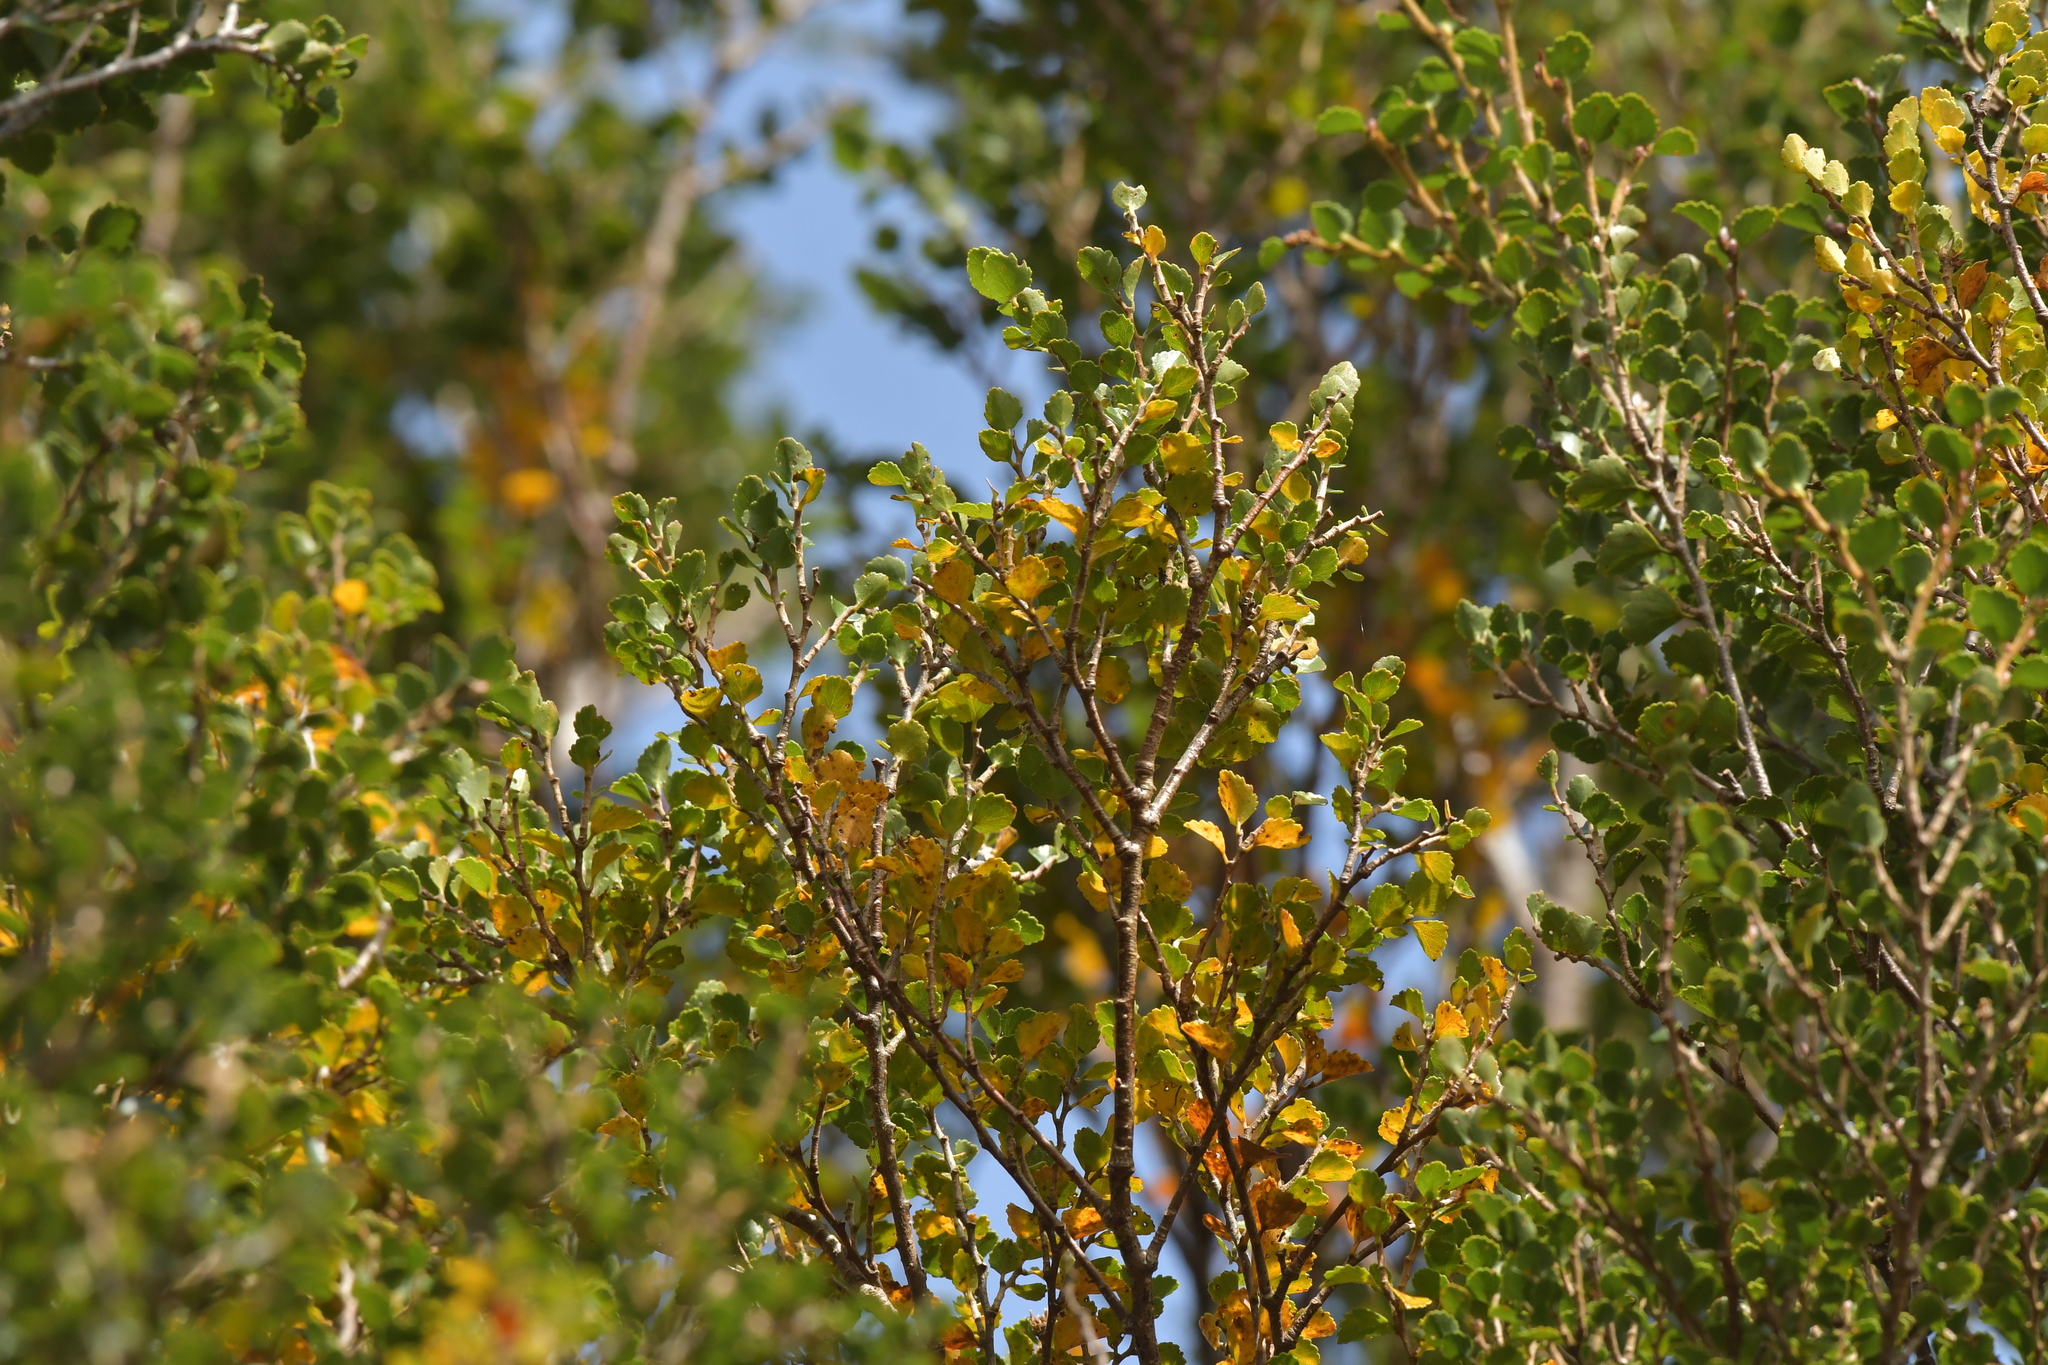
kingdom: Plantae
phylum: Tracheophyta
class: Magnoliopsida
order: Fagales
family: Nothofagaceae
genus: Nothofagus
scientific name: Nothofagus menziesii
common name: Silver beech
